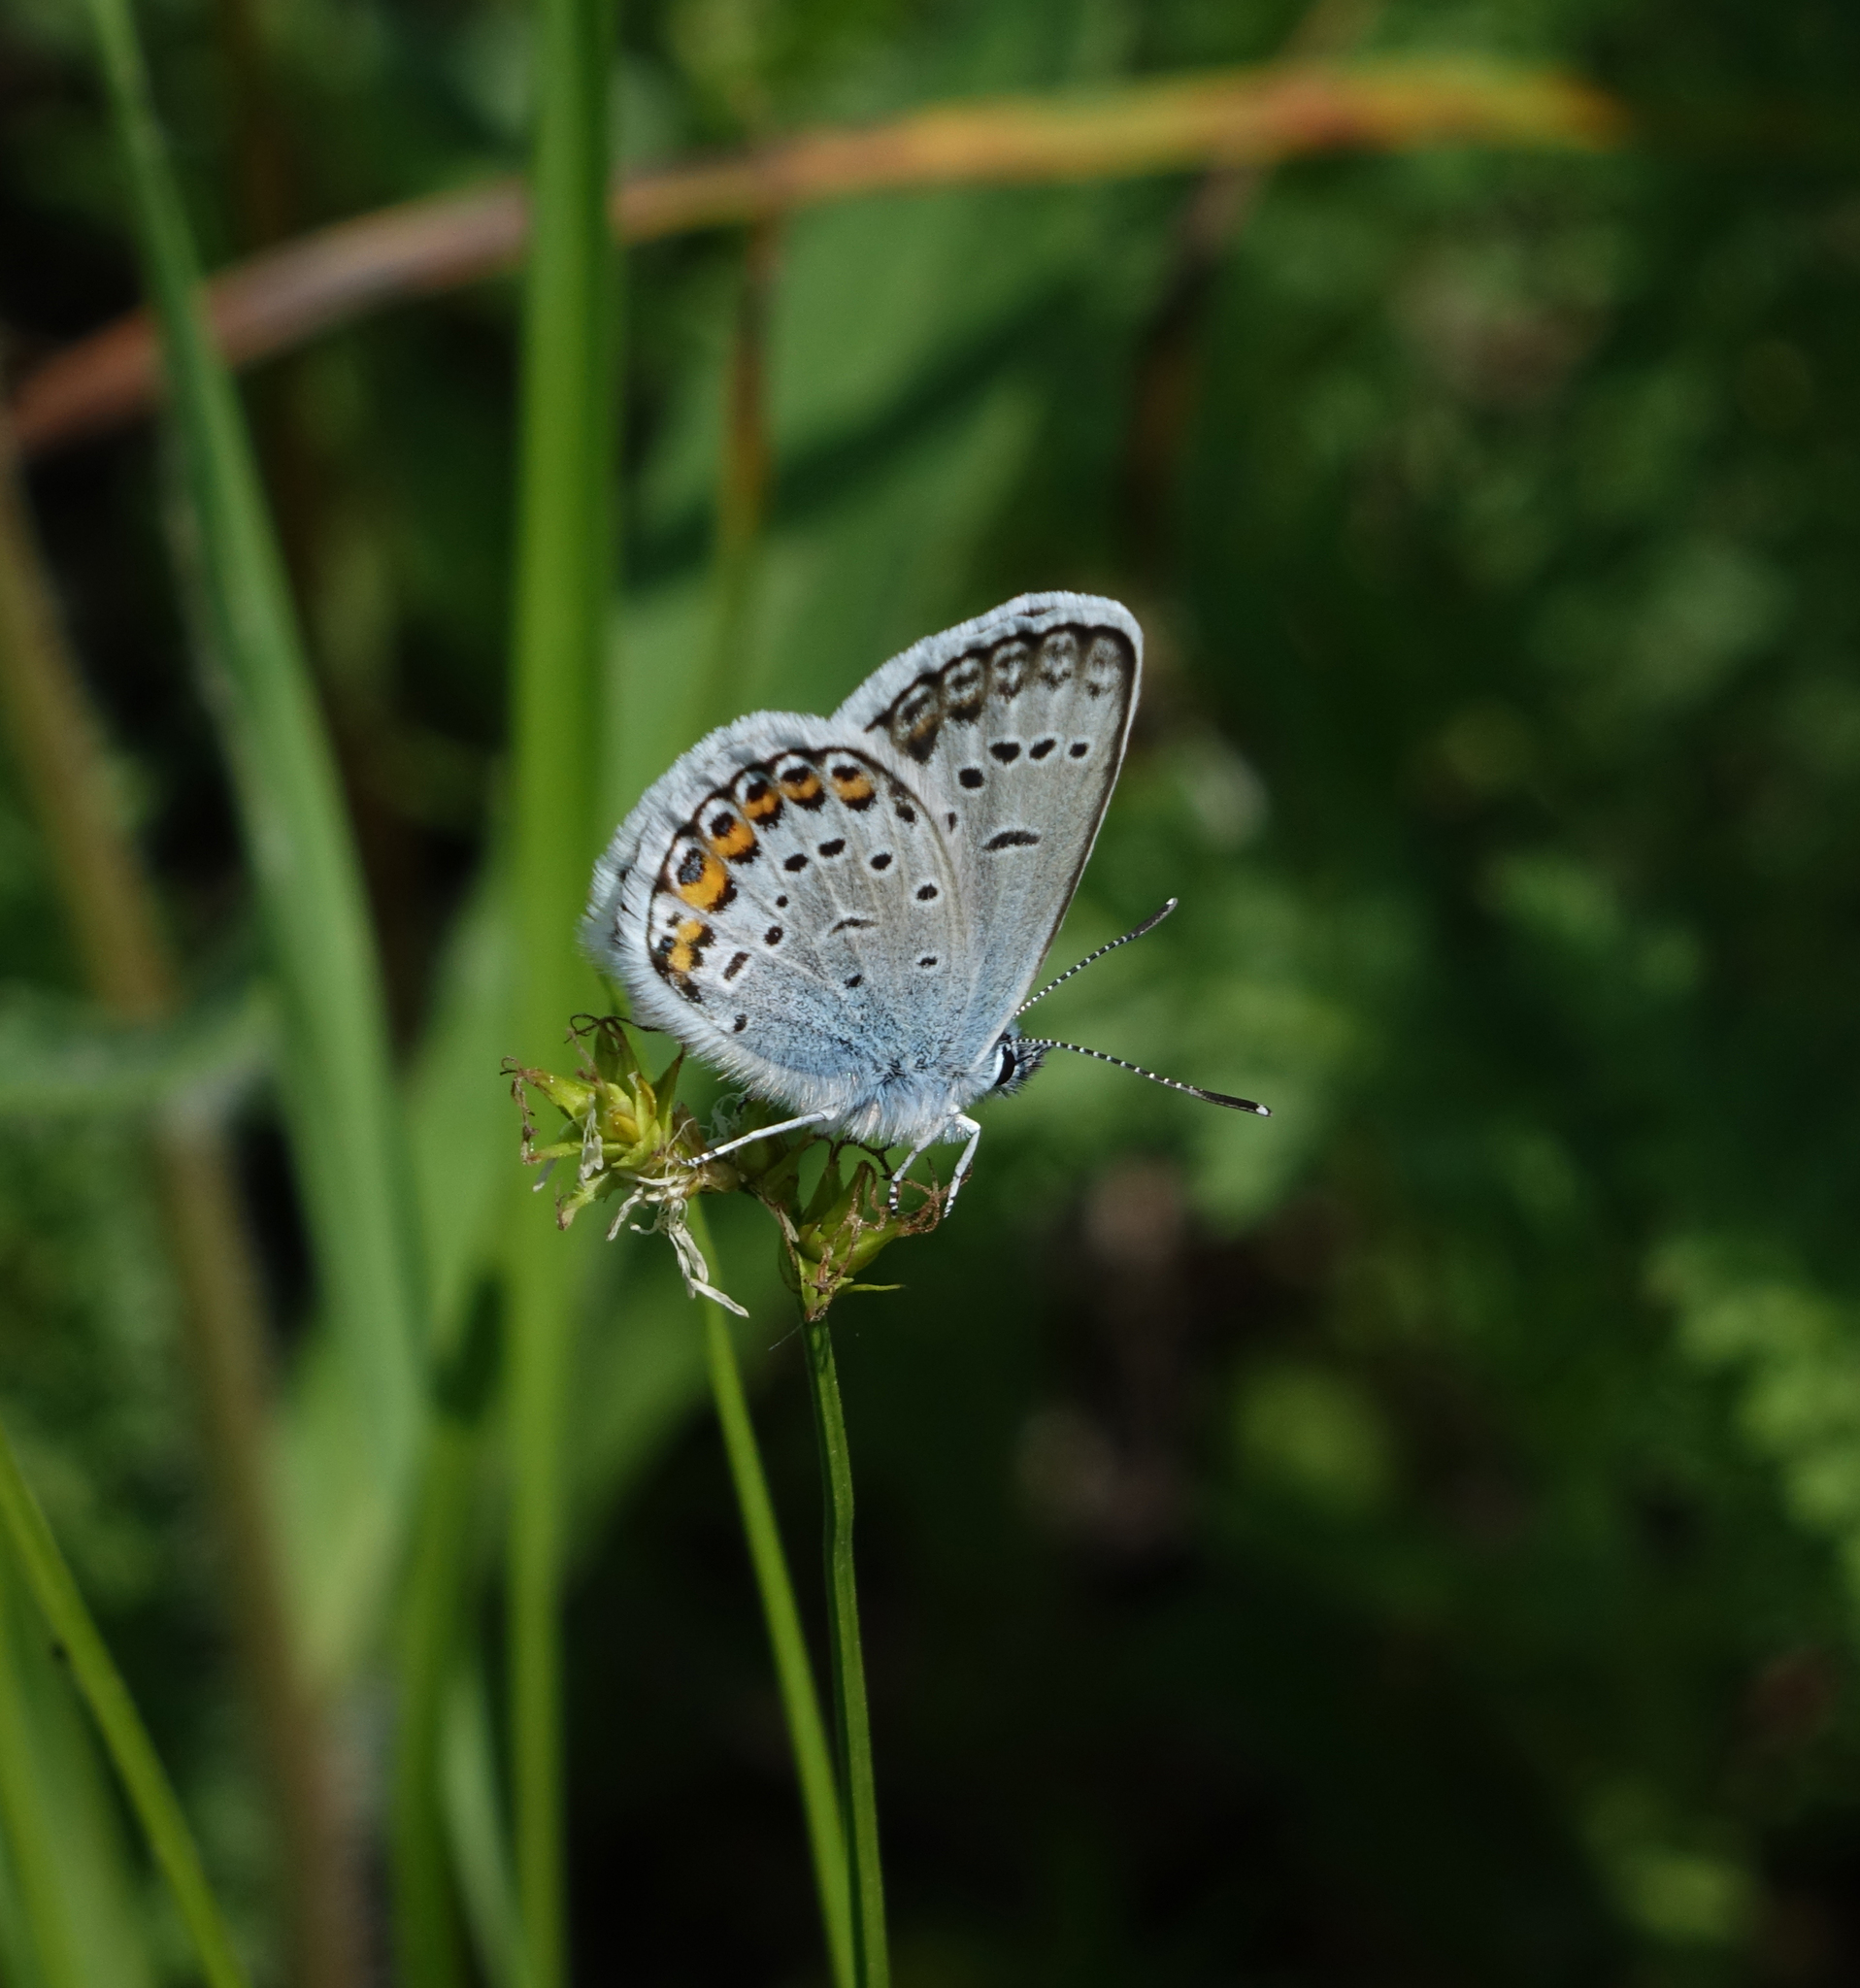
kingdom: Animalia
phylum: Arthropoda
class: Insecta
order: Lepidoptera
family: Lycaenidae
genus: Plebejus
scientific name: Plebejus argus
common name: Silver-studded blue
